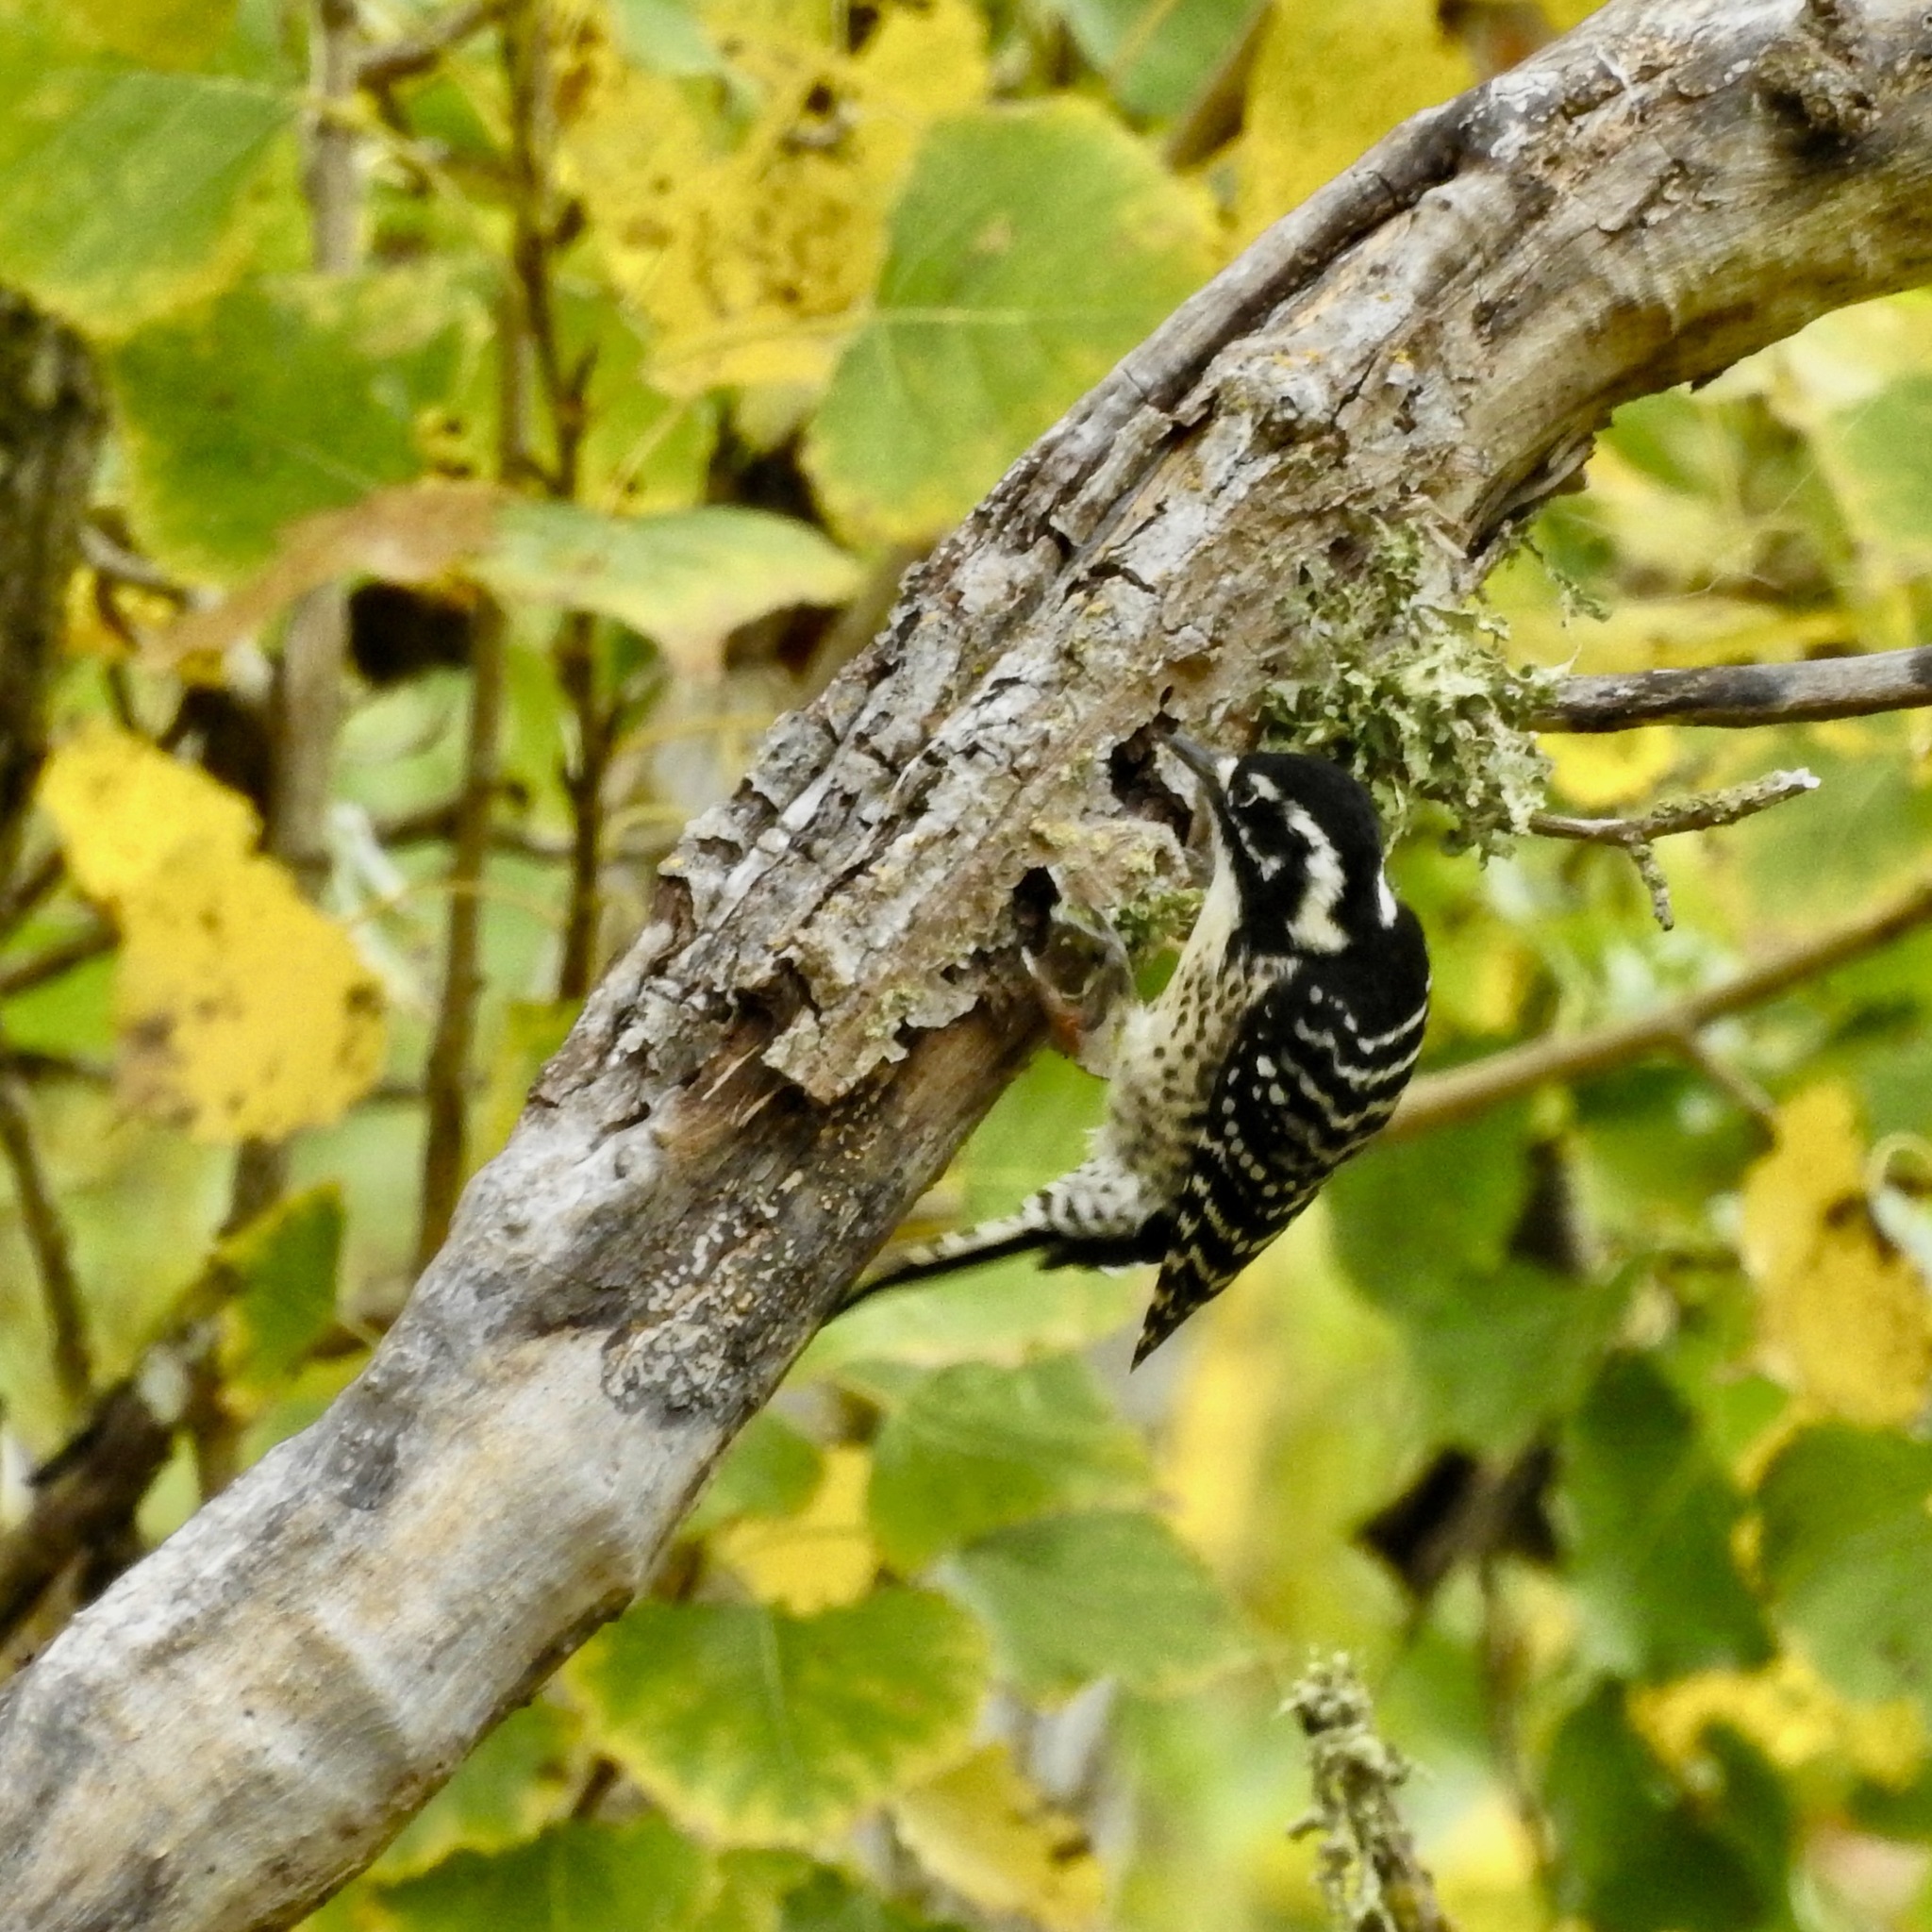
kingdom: Animalia
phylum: Chordata
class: Aves
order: Piciformes
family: Picidae
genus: Dryobates
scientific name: Dryobates nuttallii
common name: Nuttall's woodpecker
